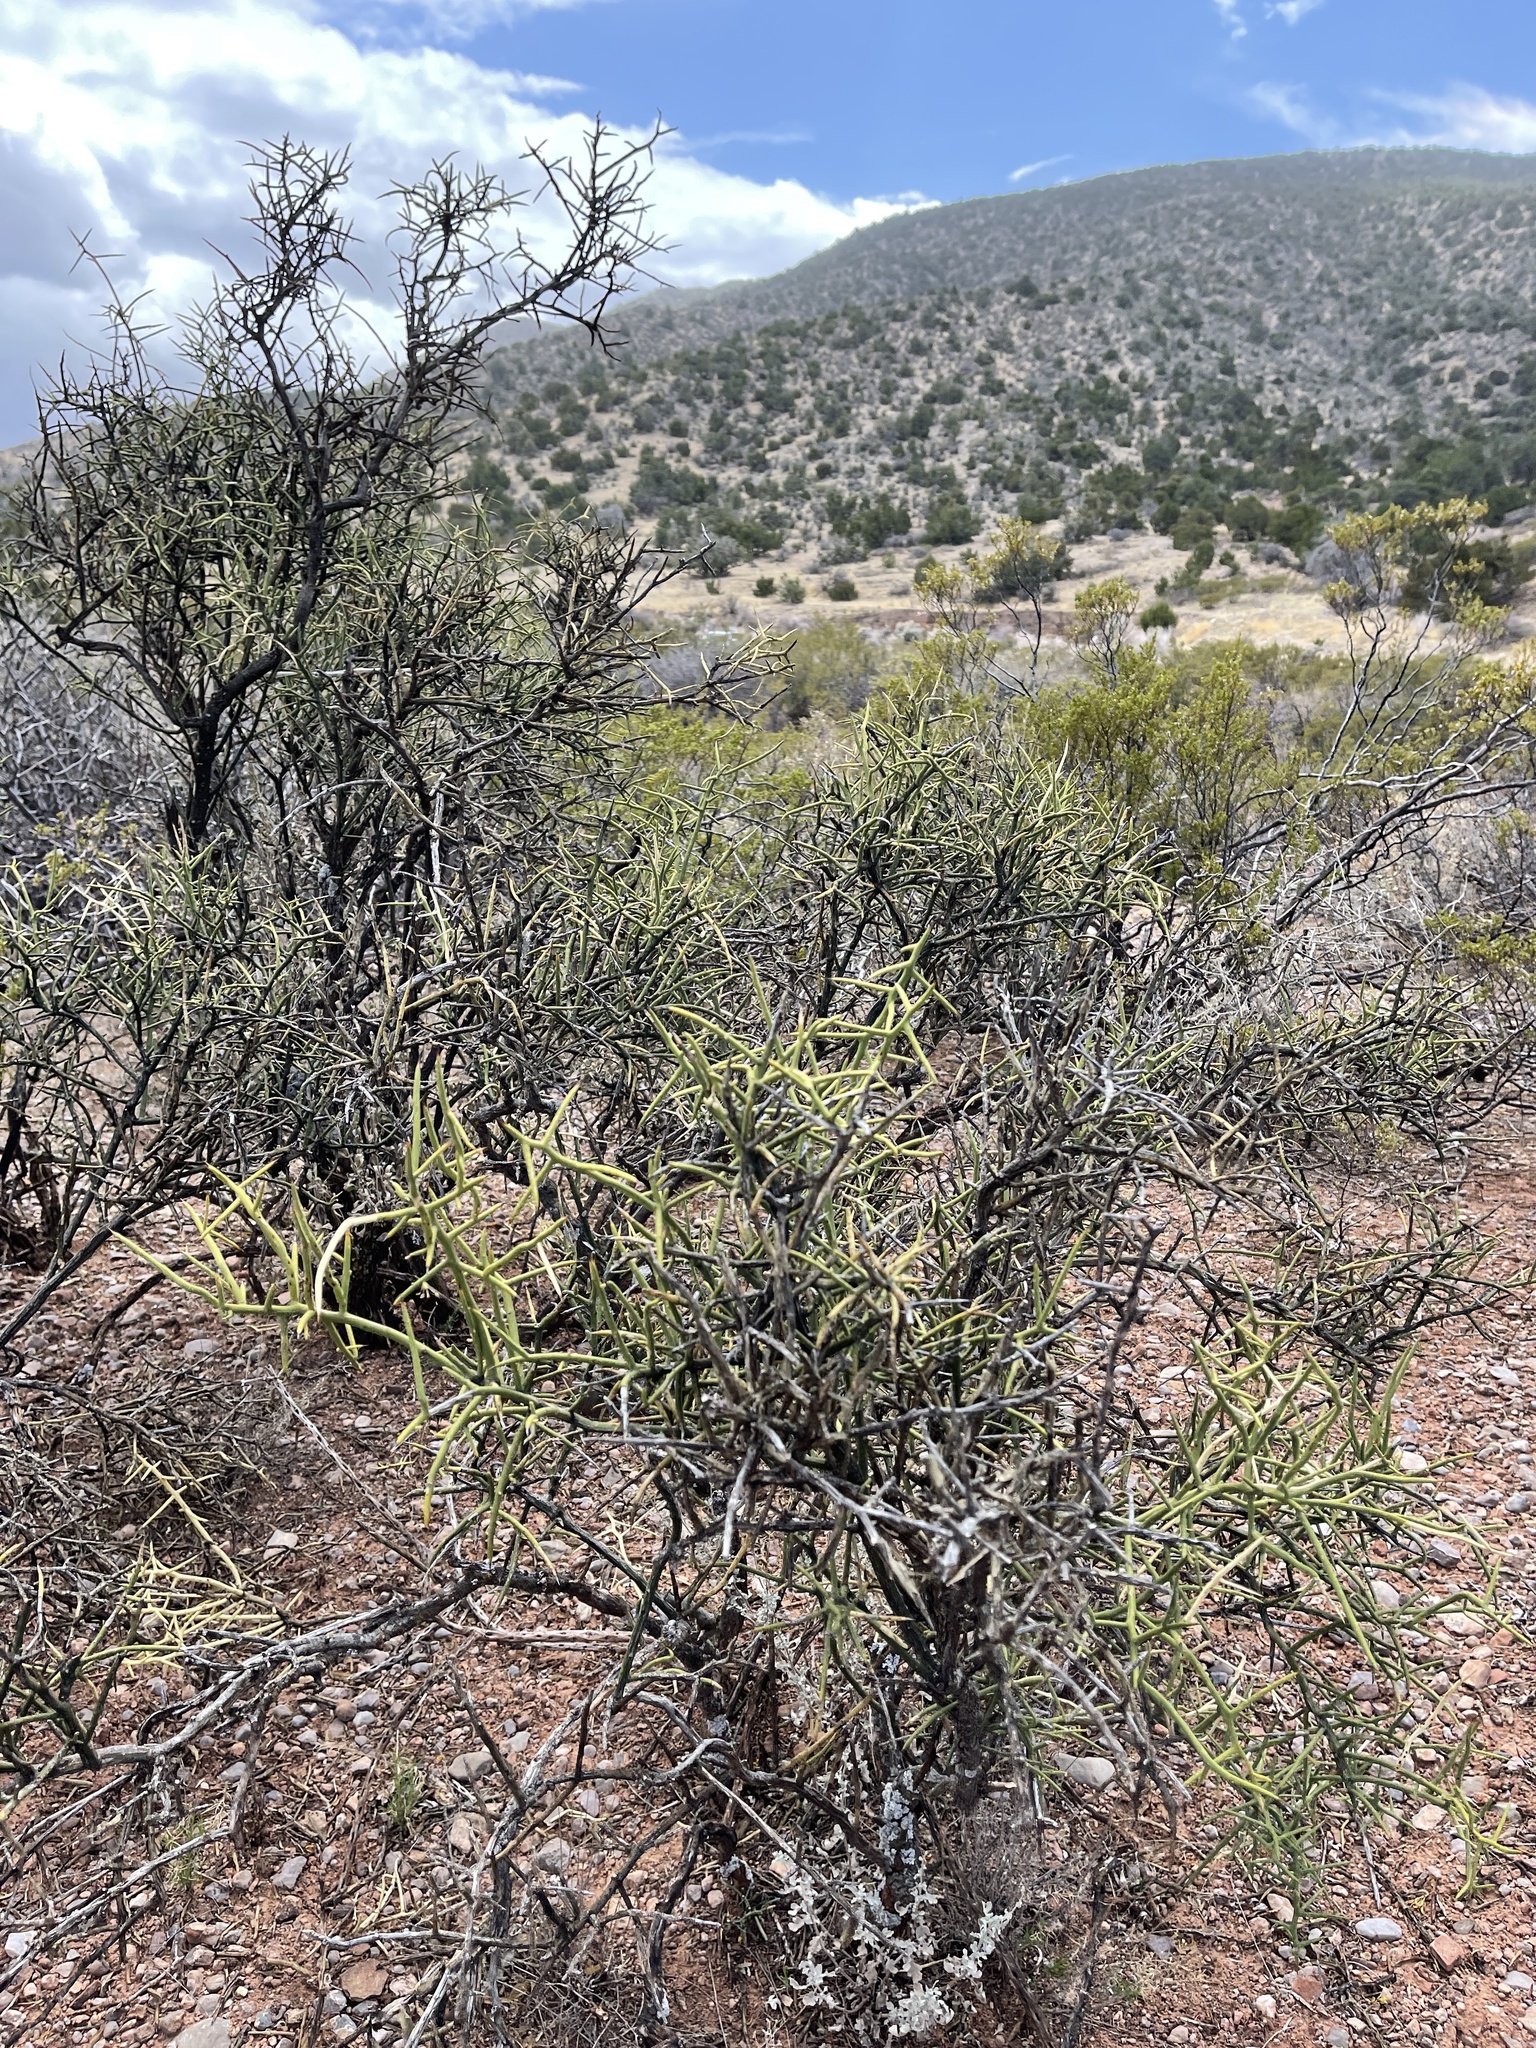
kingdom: Plantae
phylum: Tracheophyta
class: Magnoliopsida
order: Brassicales
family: Koeberliniaceae
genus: Koeberlinia
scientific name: Koeberlinia spinosa
